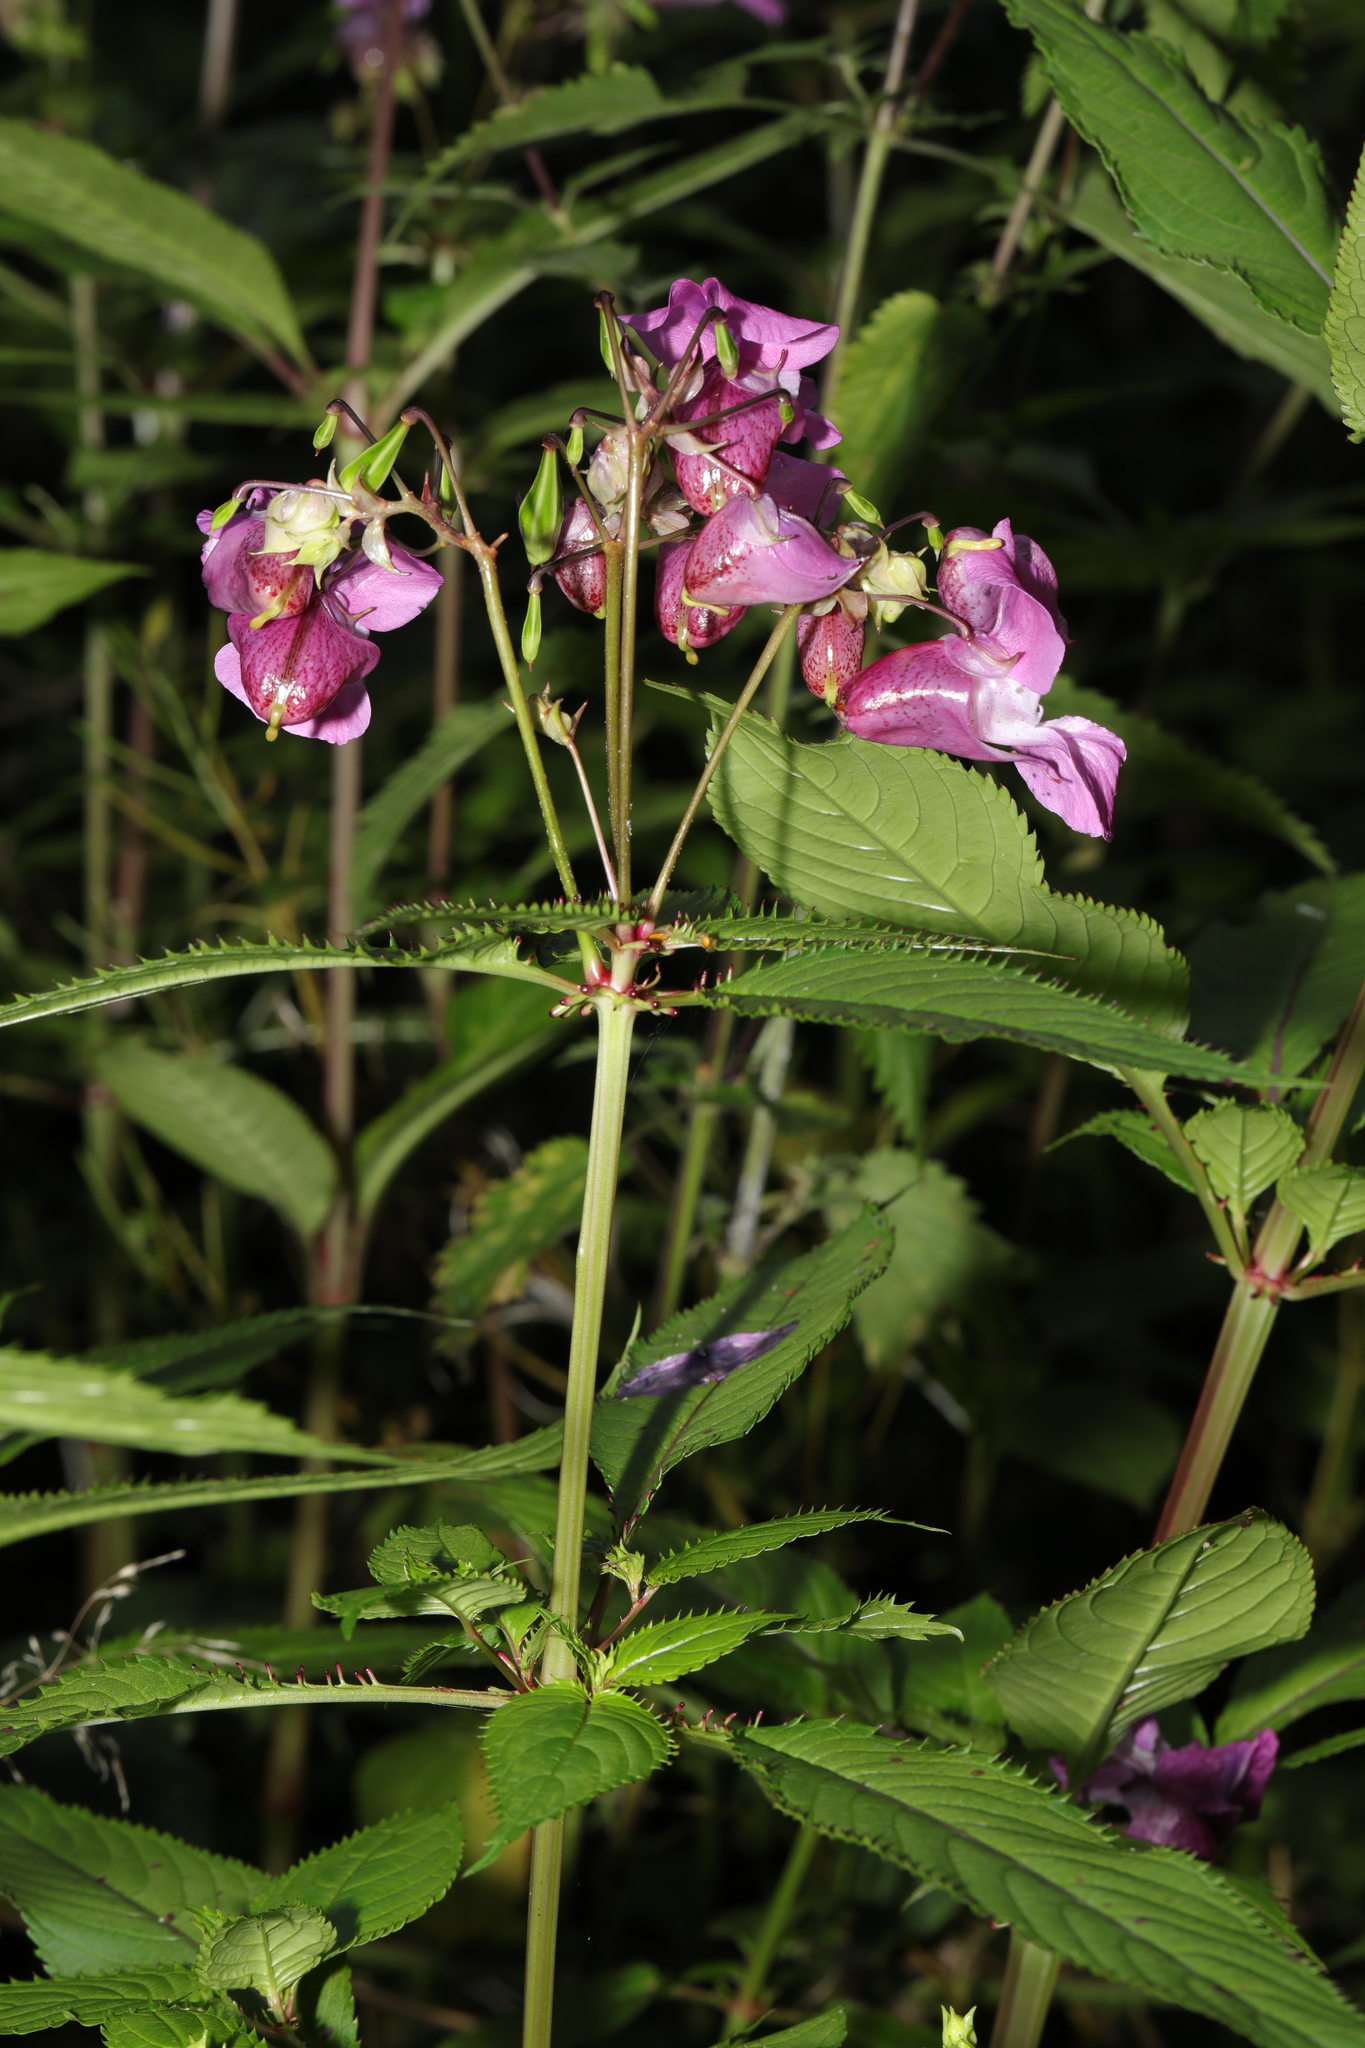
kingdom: Plantae
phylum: Tracheophyta
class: Magnoliopsida
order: Ericales
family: Balsaminaceae
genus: Impatiens
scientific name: Impatiens glandulifera
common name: Himalayan balsam
